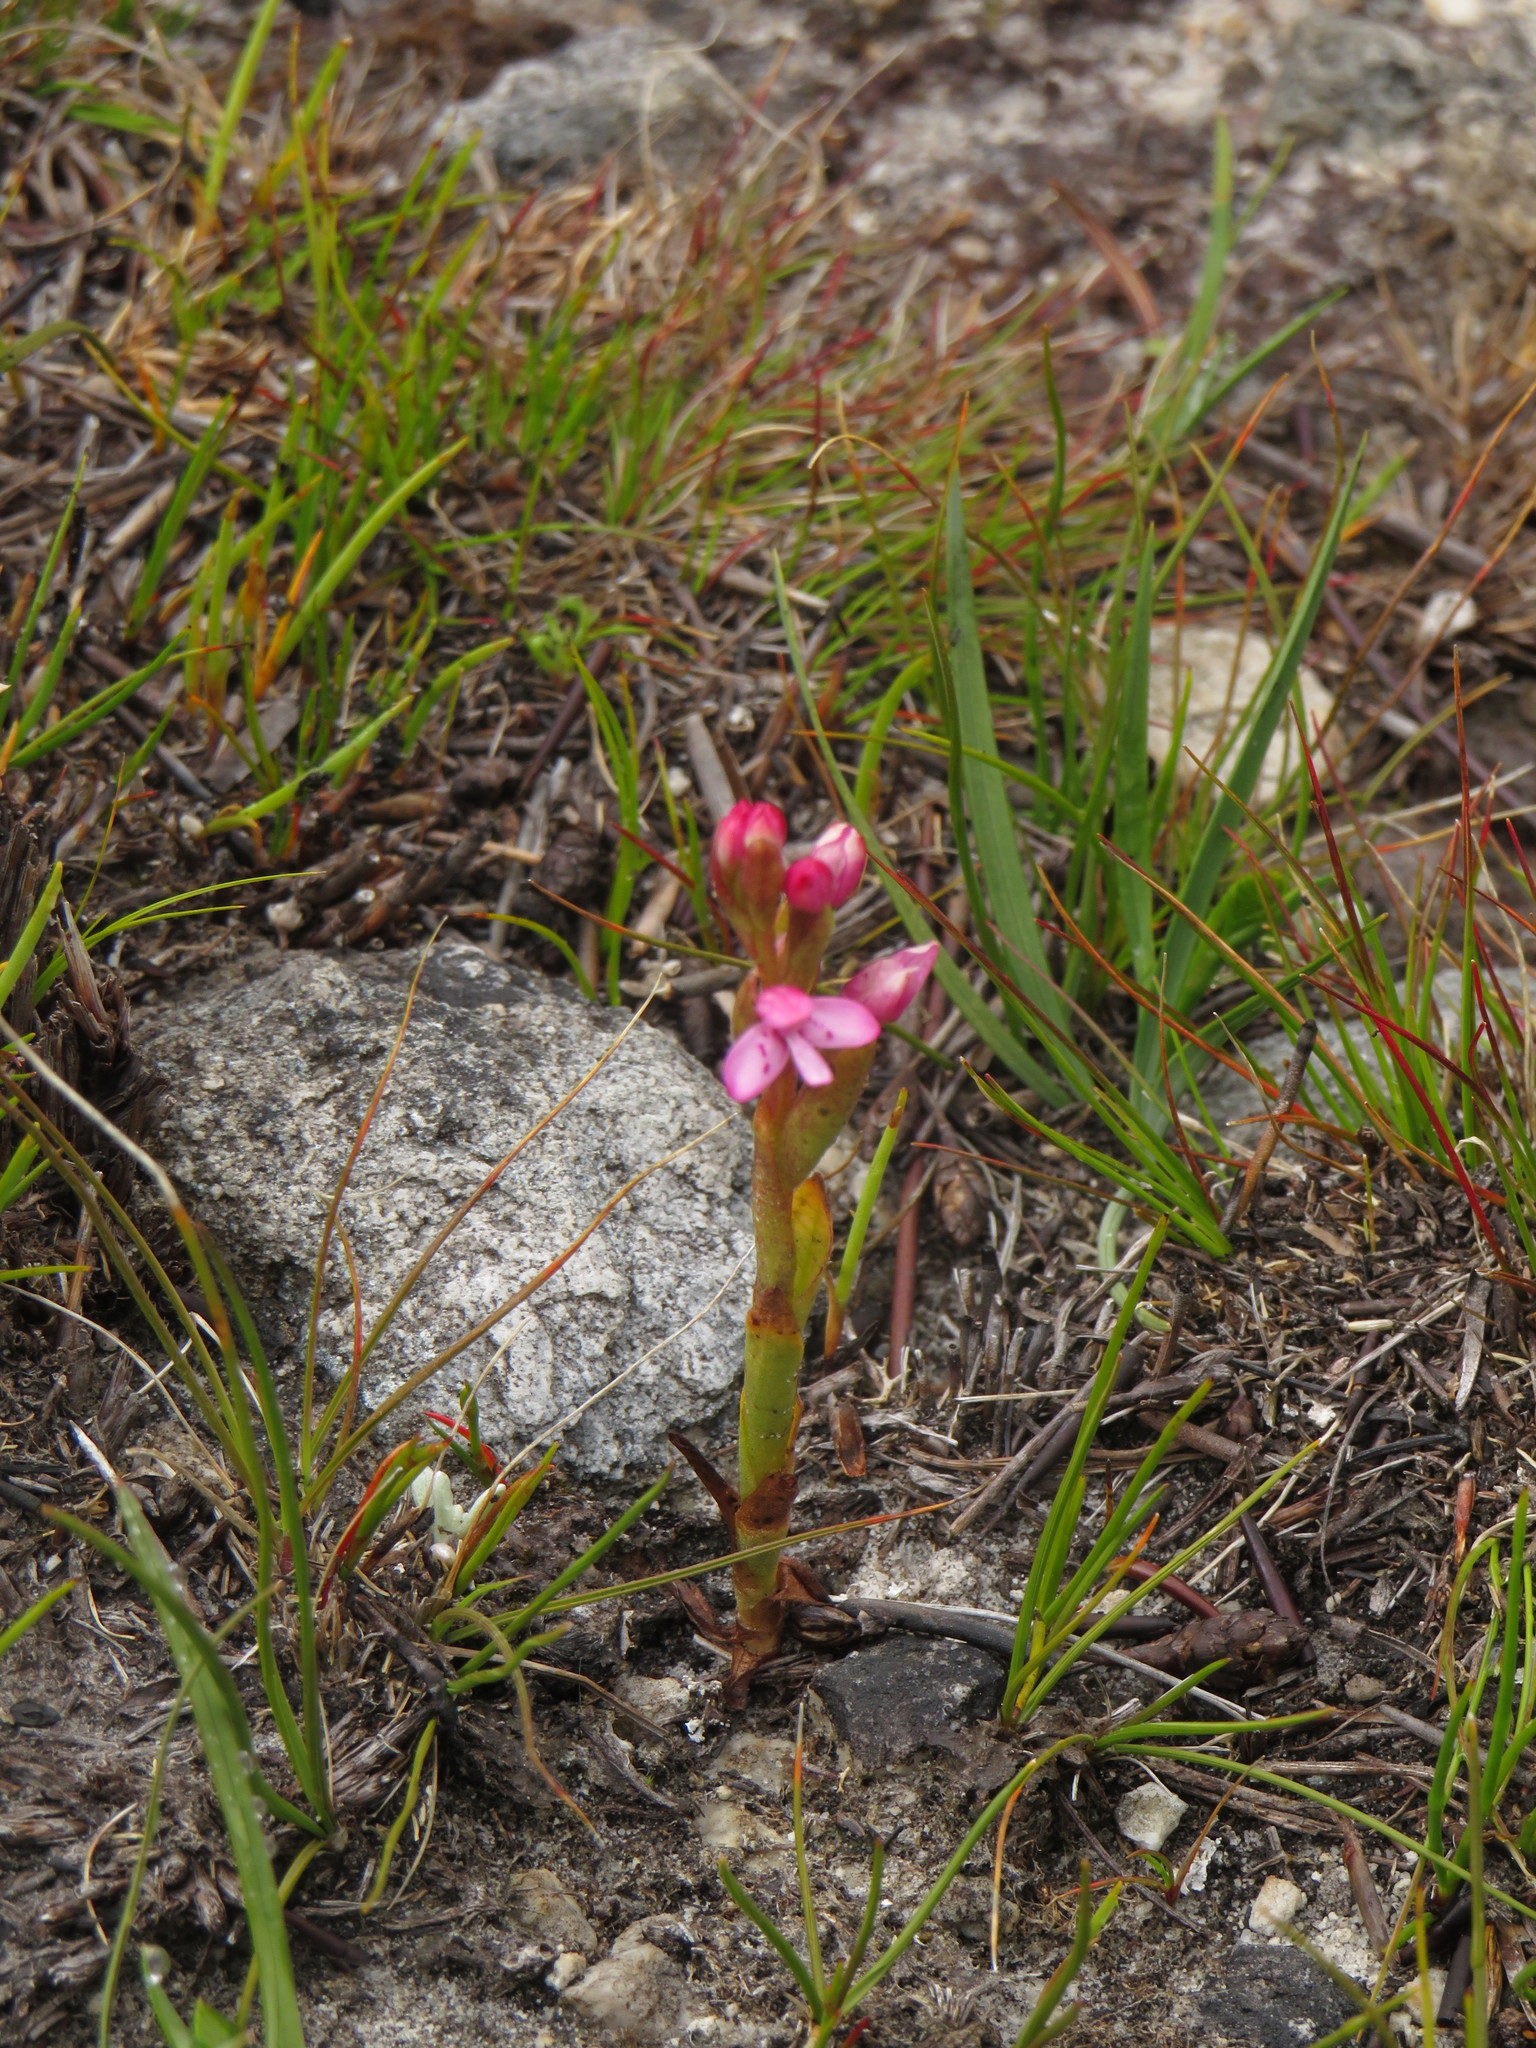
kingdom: Plantae
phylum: Tracheophyta
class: Liliopsida
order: Asparagales
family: Orchidaceae
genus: Disa
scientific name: Disa vaginata
